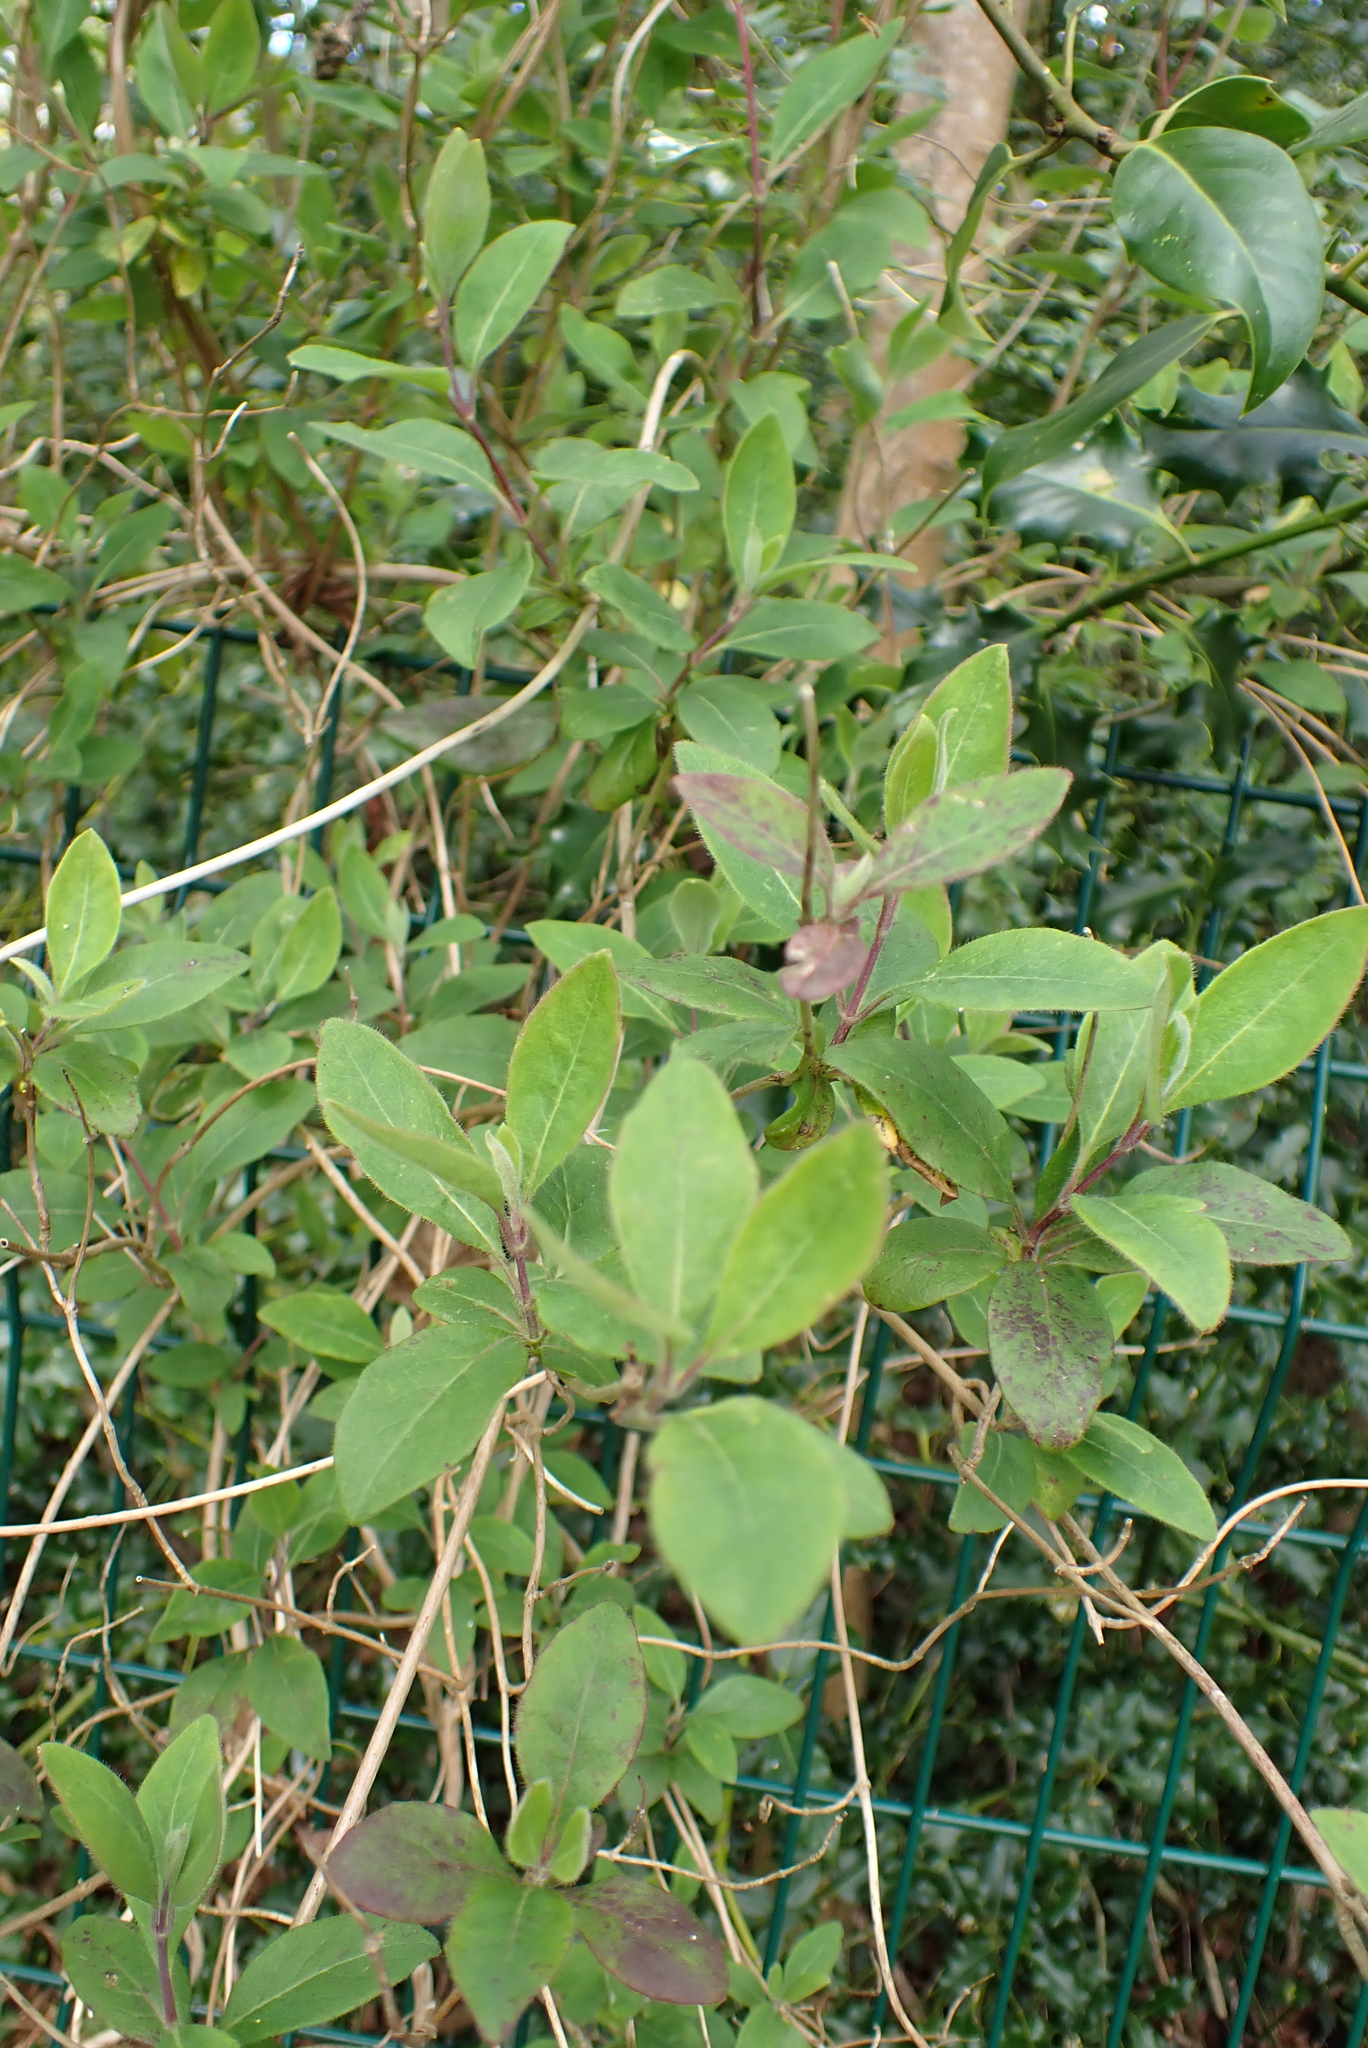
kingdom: Plantae
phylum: Tracheophyta
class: Magnoliopsida
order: Dipsacales
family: Caprifoliaceae
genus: Lonicera
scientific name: Lonicera periclymenum
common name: European honeysuckle
